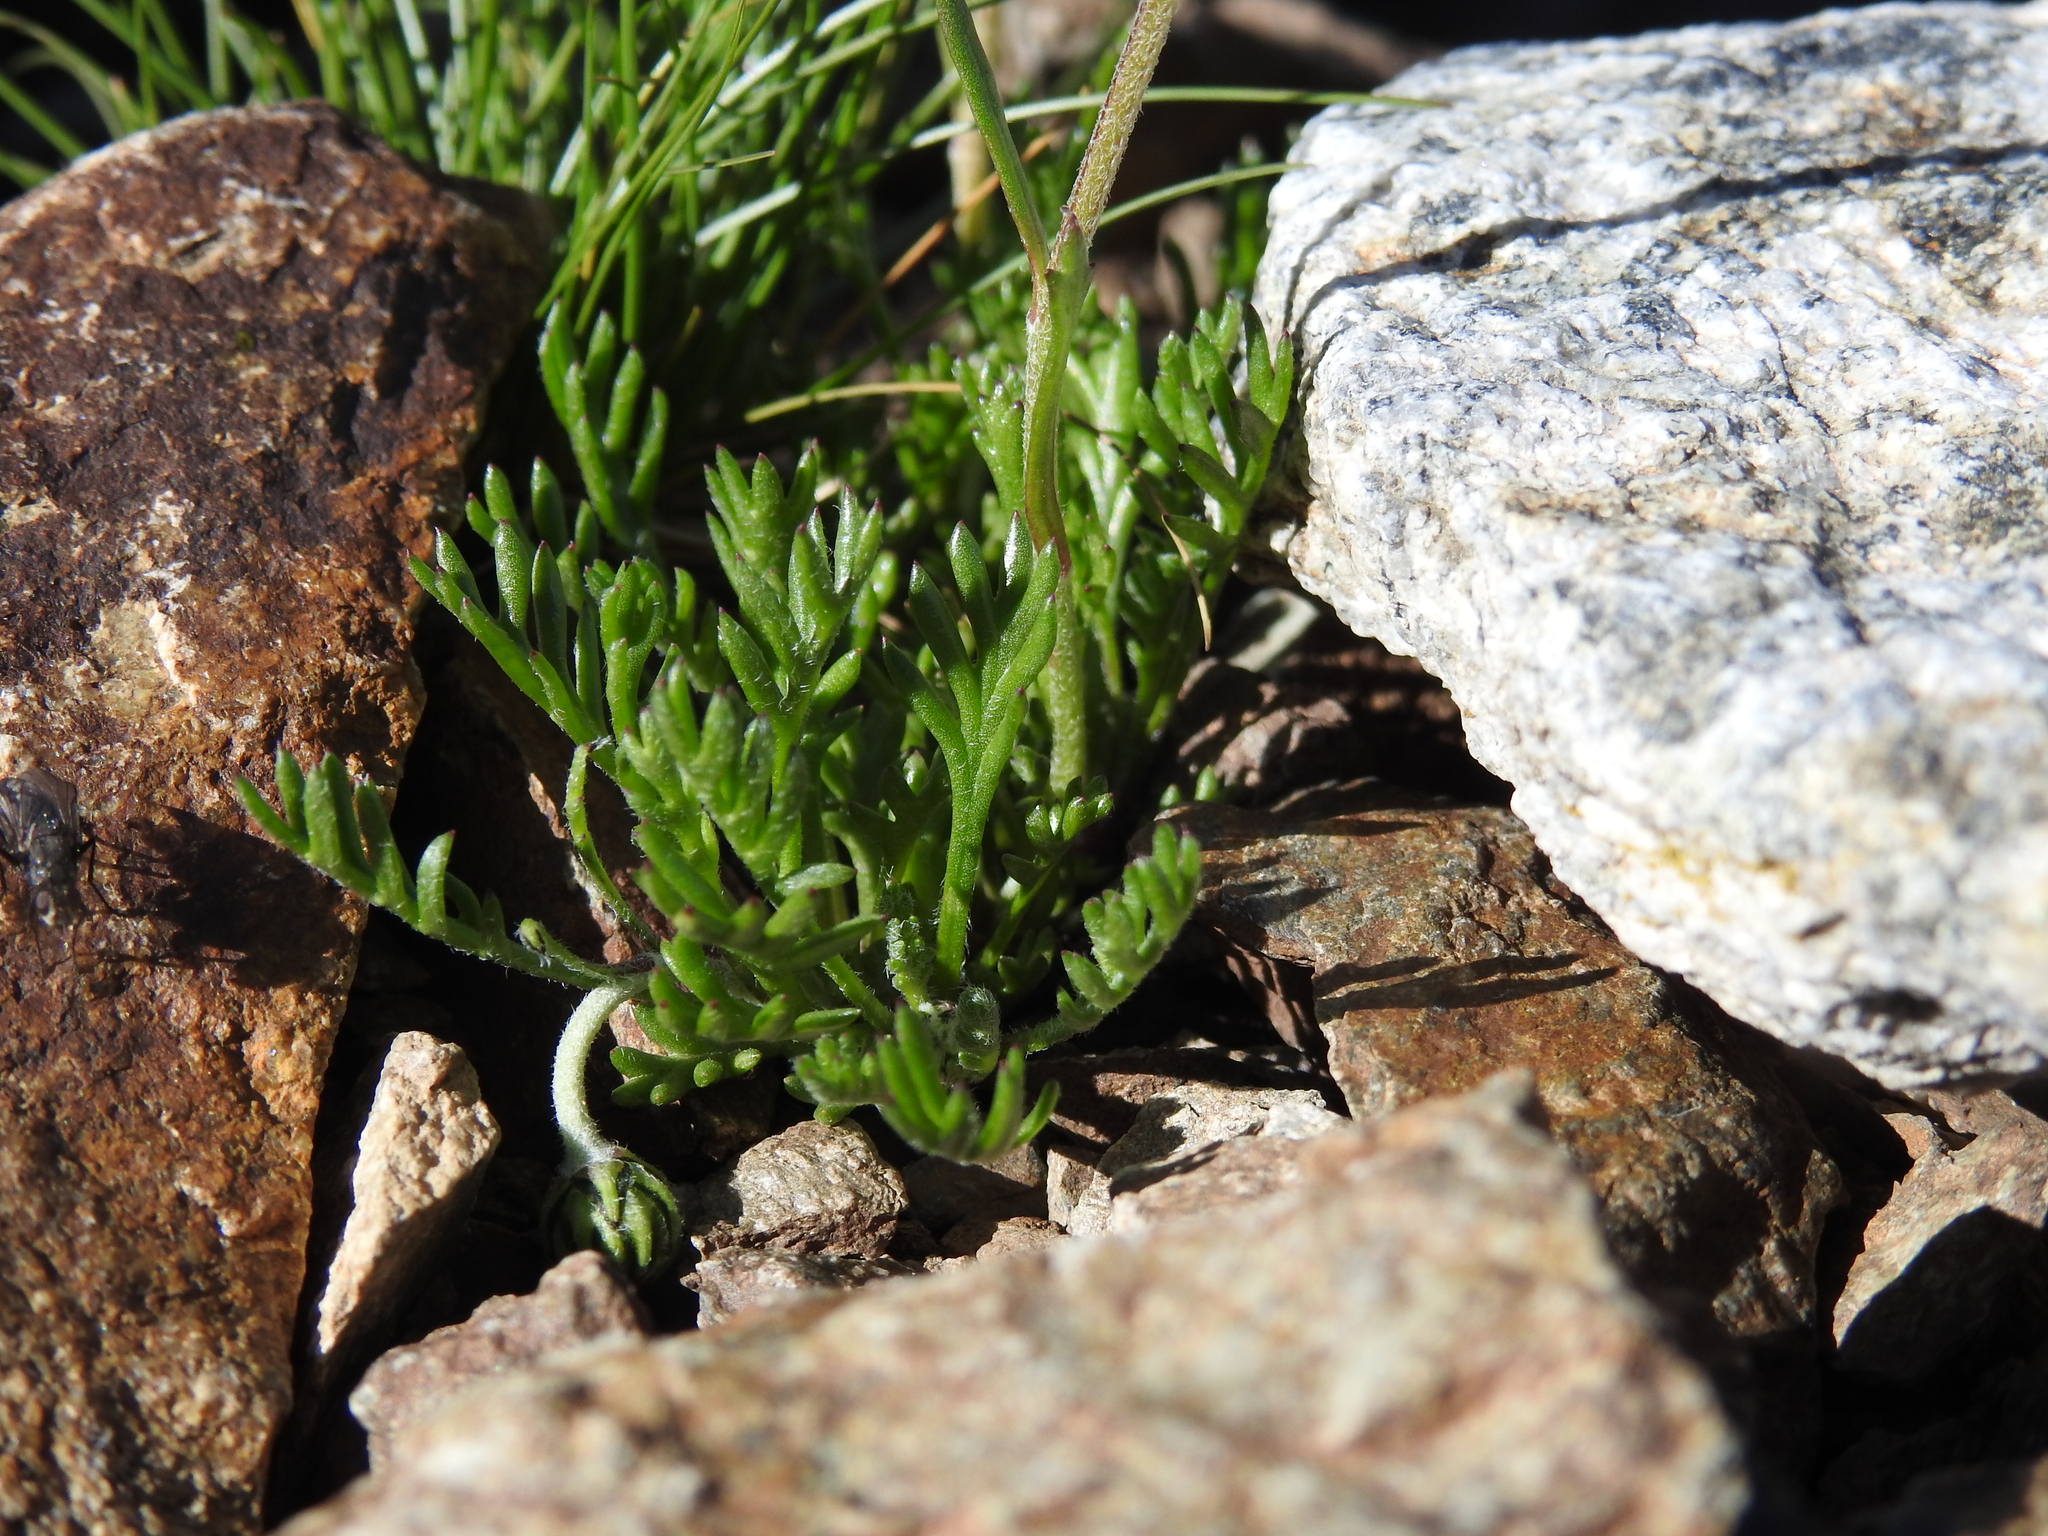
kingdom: Plantae
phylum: Tracheophyta
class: Magnoliopsida
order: Asterales
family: Asteraceae
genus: Leucanthemopsis
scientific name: Leucanthemopsis alpina
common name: Alpine moon daisy
